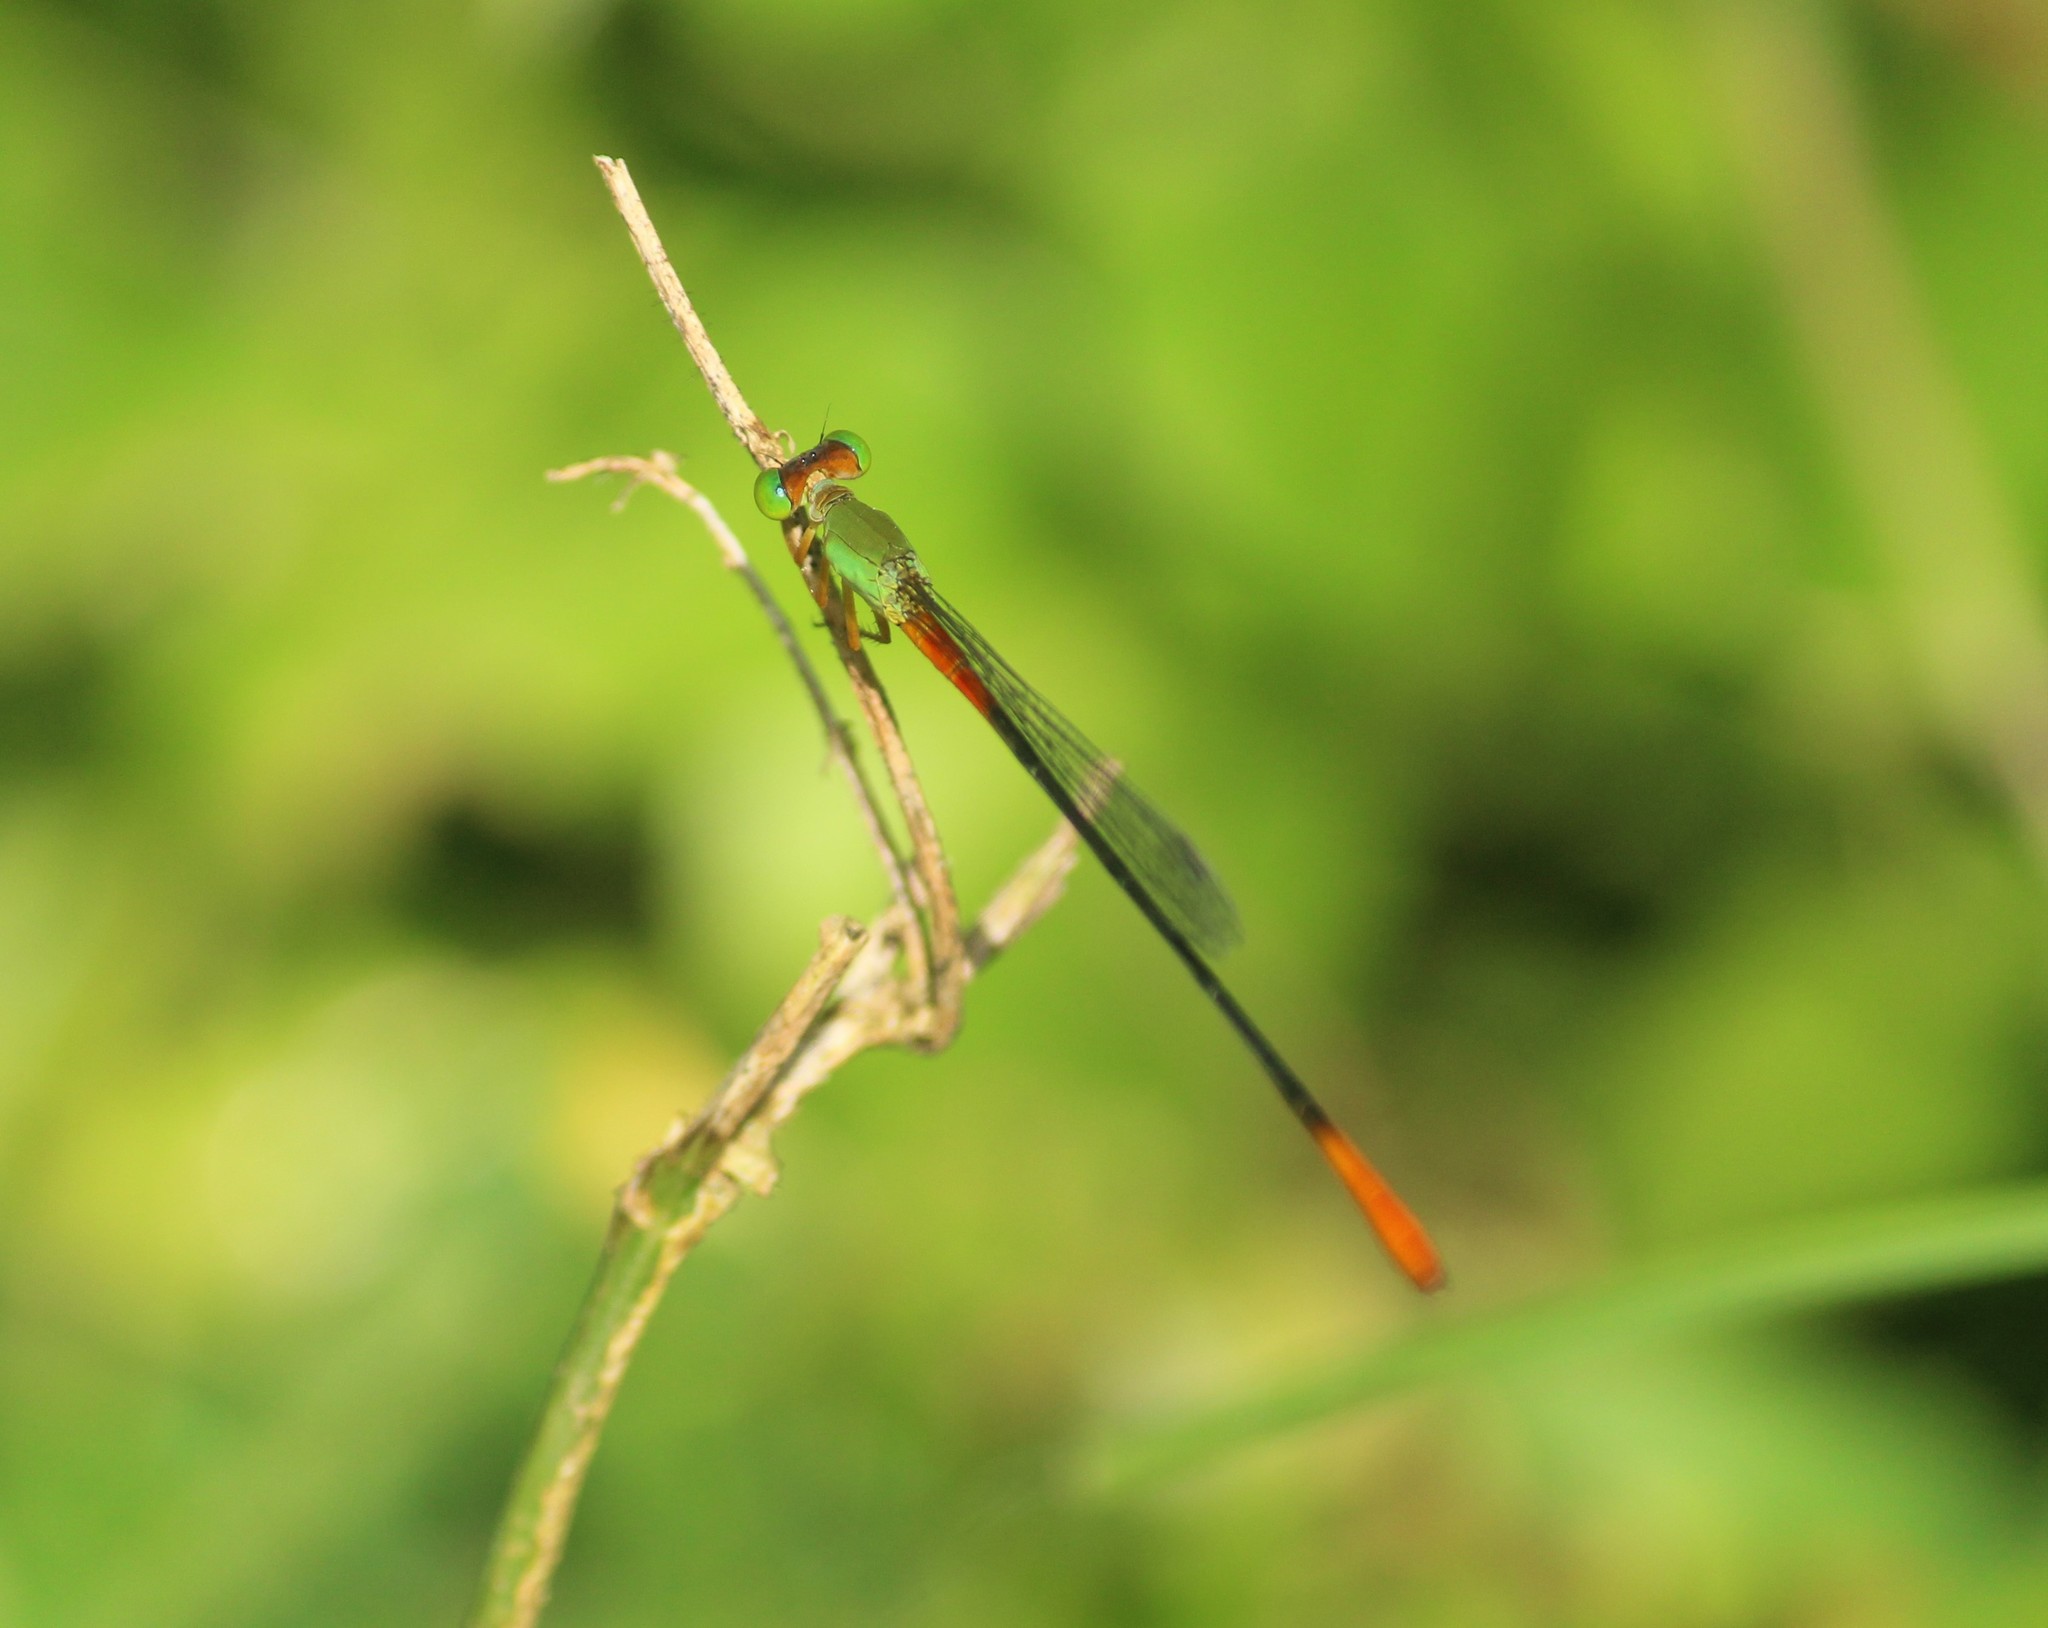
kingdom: Animalia
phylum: Arthropoda
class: Insecta
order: Odonata
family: Coenagrionidae
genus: Ceriagrion
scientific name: Ceriagrion cerinorubellum
